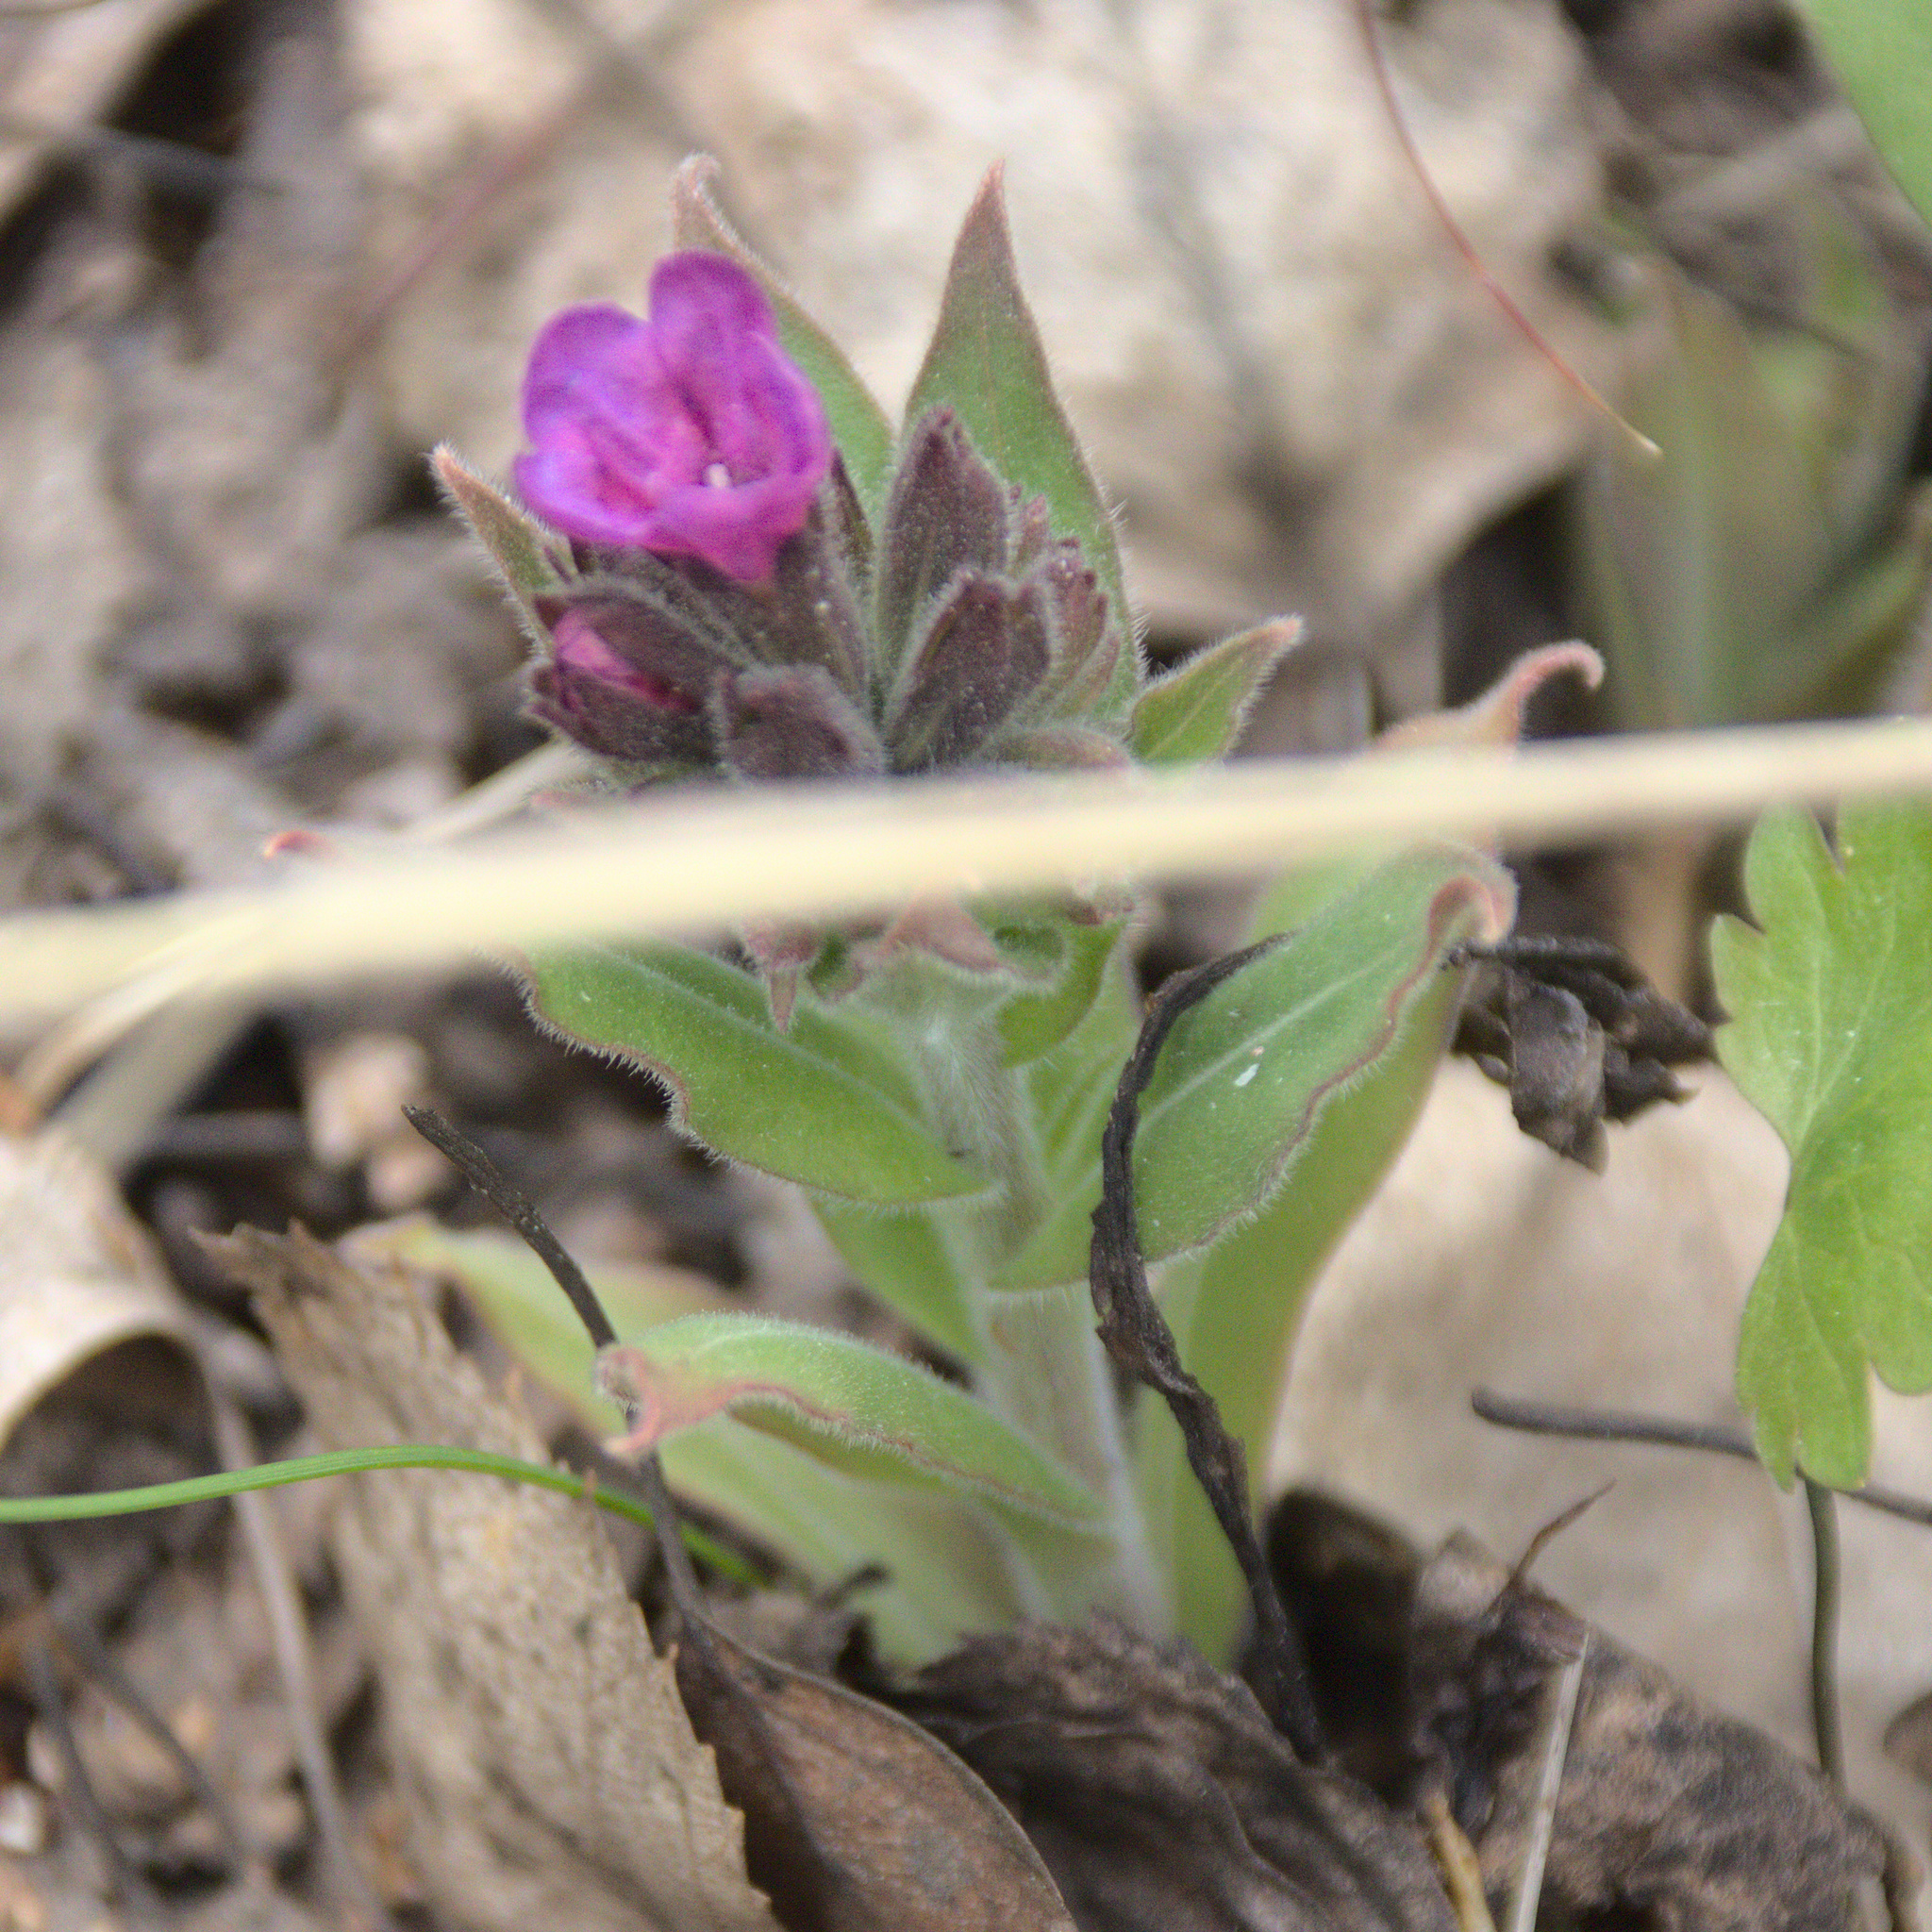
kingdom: Plantae
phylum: Tracheophyta
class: Magnoliopsida
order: Boraginales
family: Boraginaceae
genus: Pulmonaria
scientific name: Pulmonaria mollis
